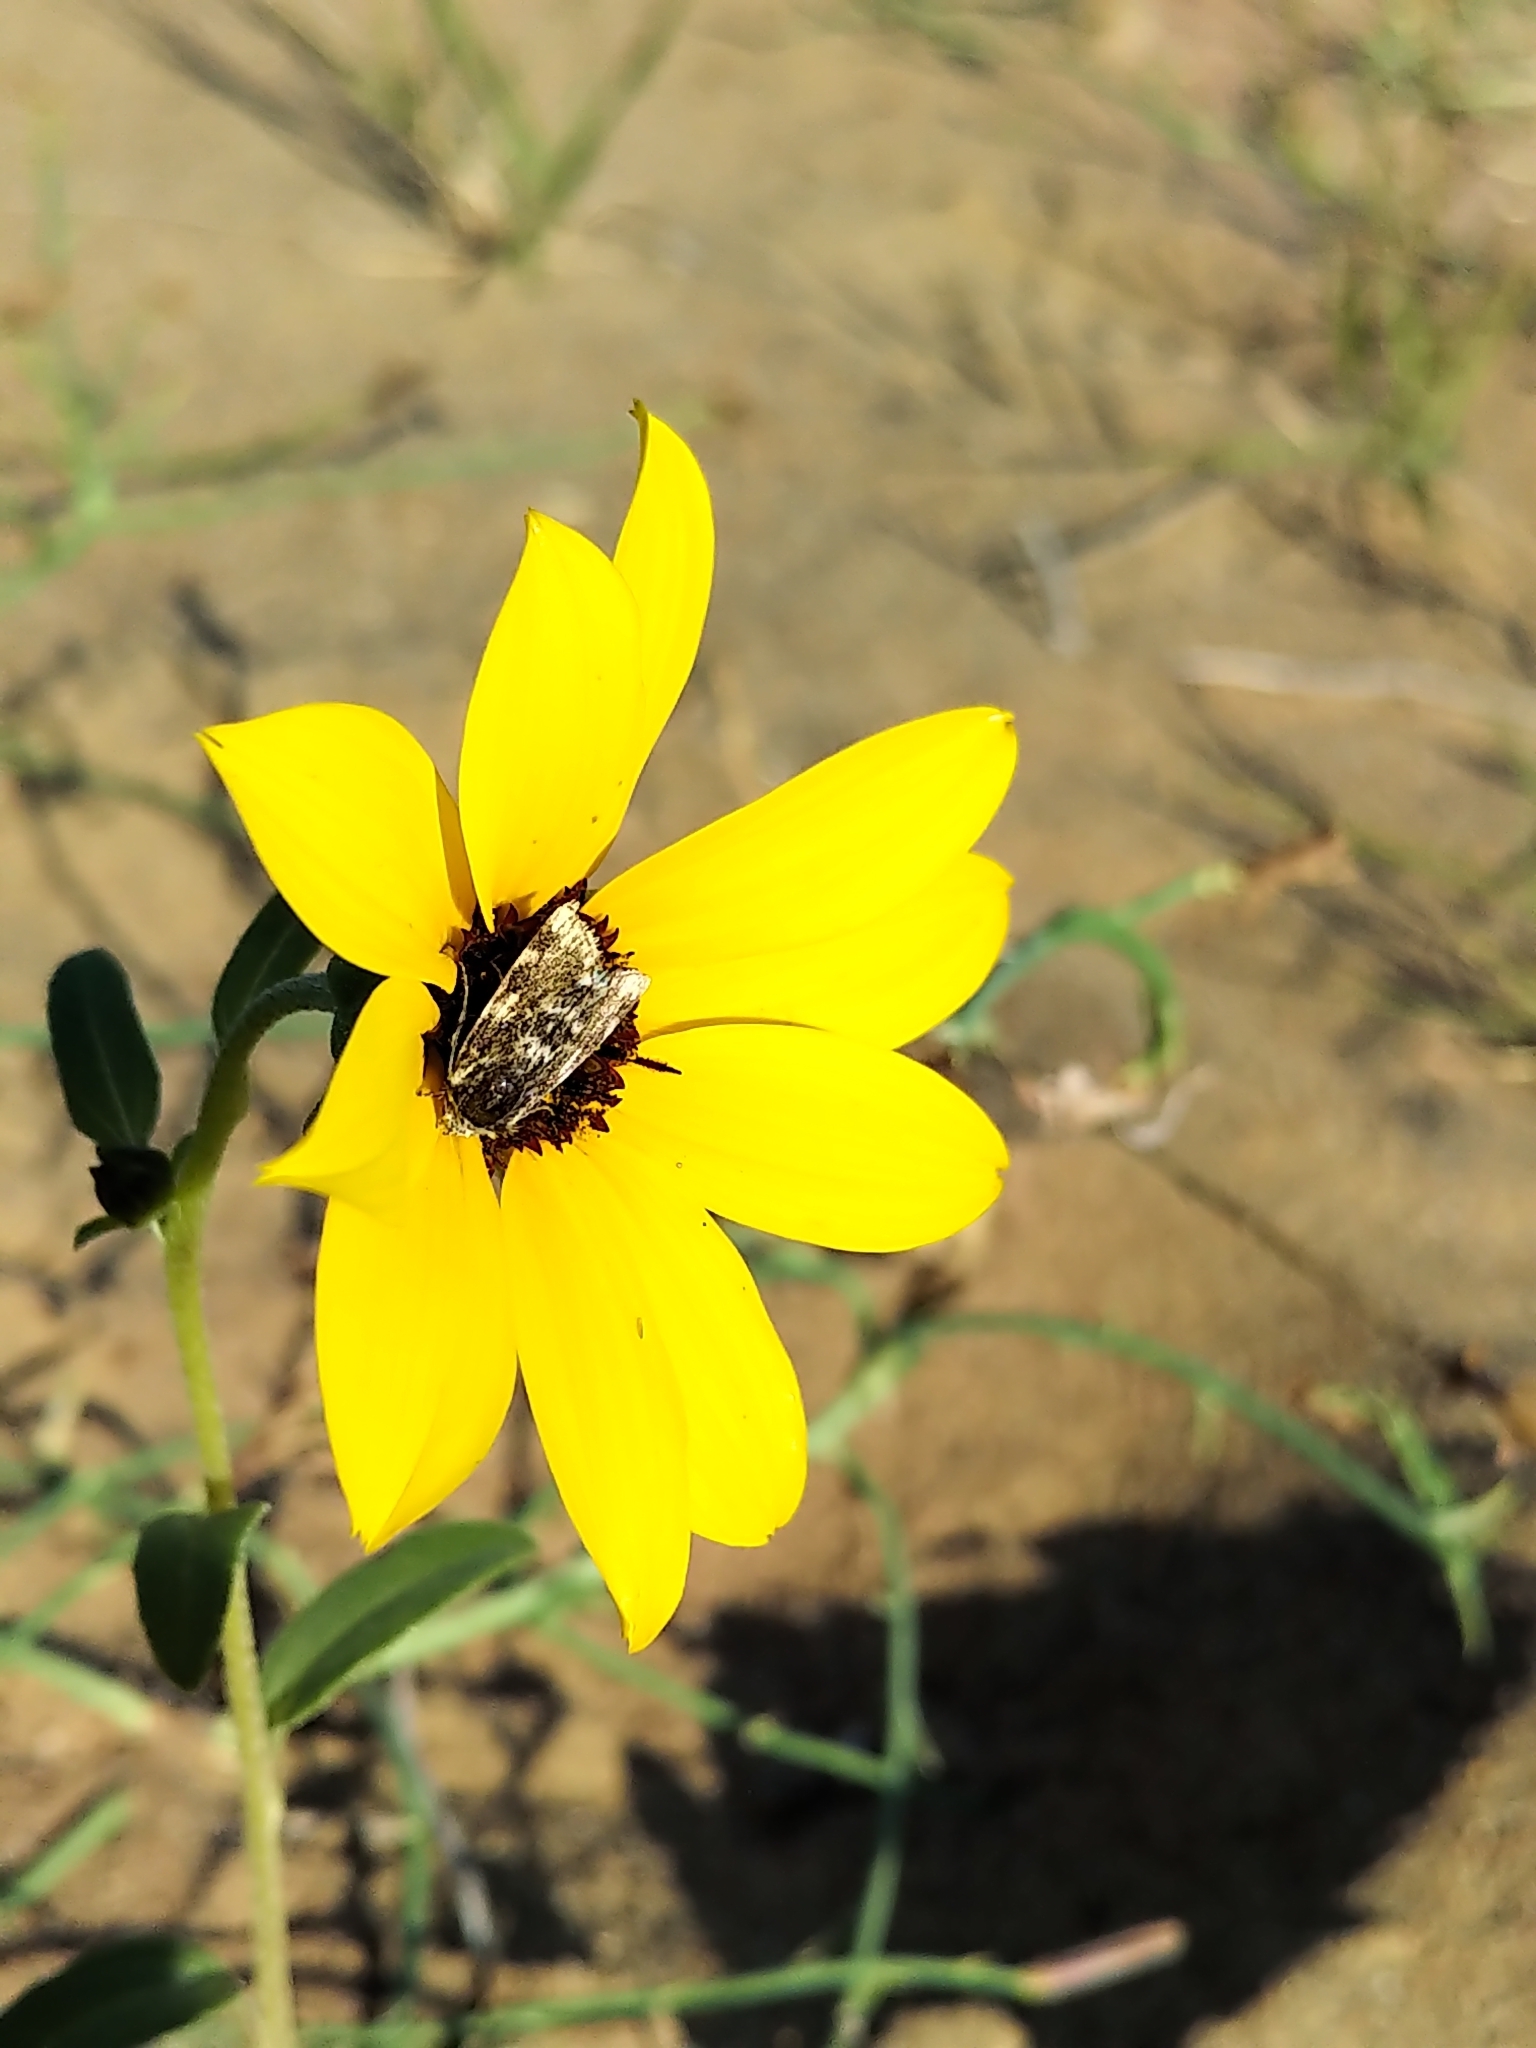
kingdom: Animalia
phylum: Arthropoda
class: Insecta
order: Lepidoptera
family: Noctuidae
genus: Schinia
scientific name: Schinia avemensis
